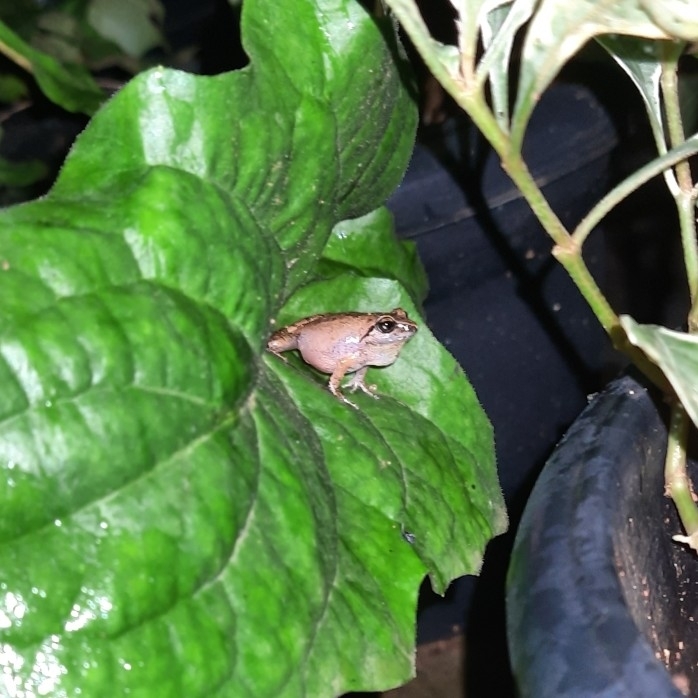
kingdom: Animalia
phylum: Chordata
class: Amphibia
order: Anura
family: Rhacophoridae
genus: Pseudophilautus
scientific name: Pseudophilautus wynaadensis
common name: Dark-eared bush frog
